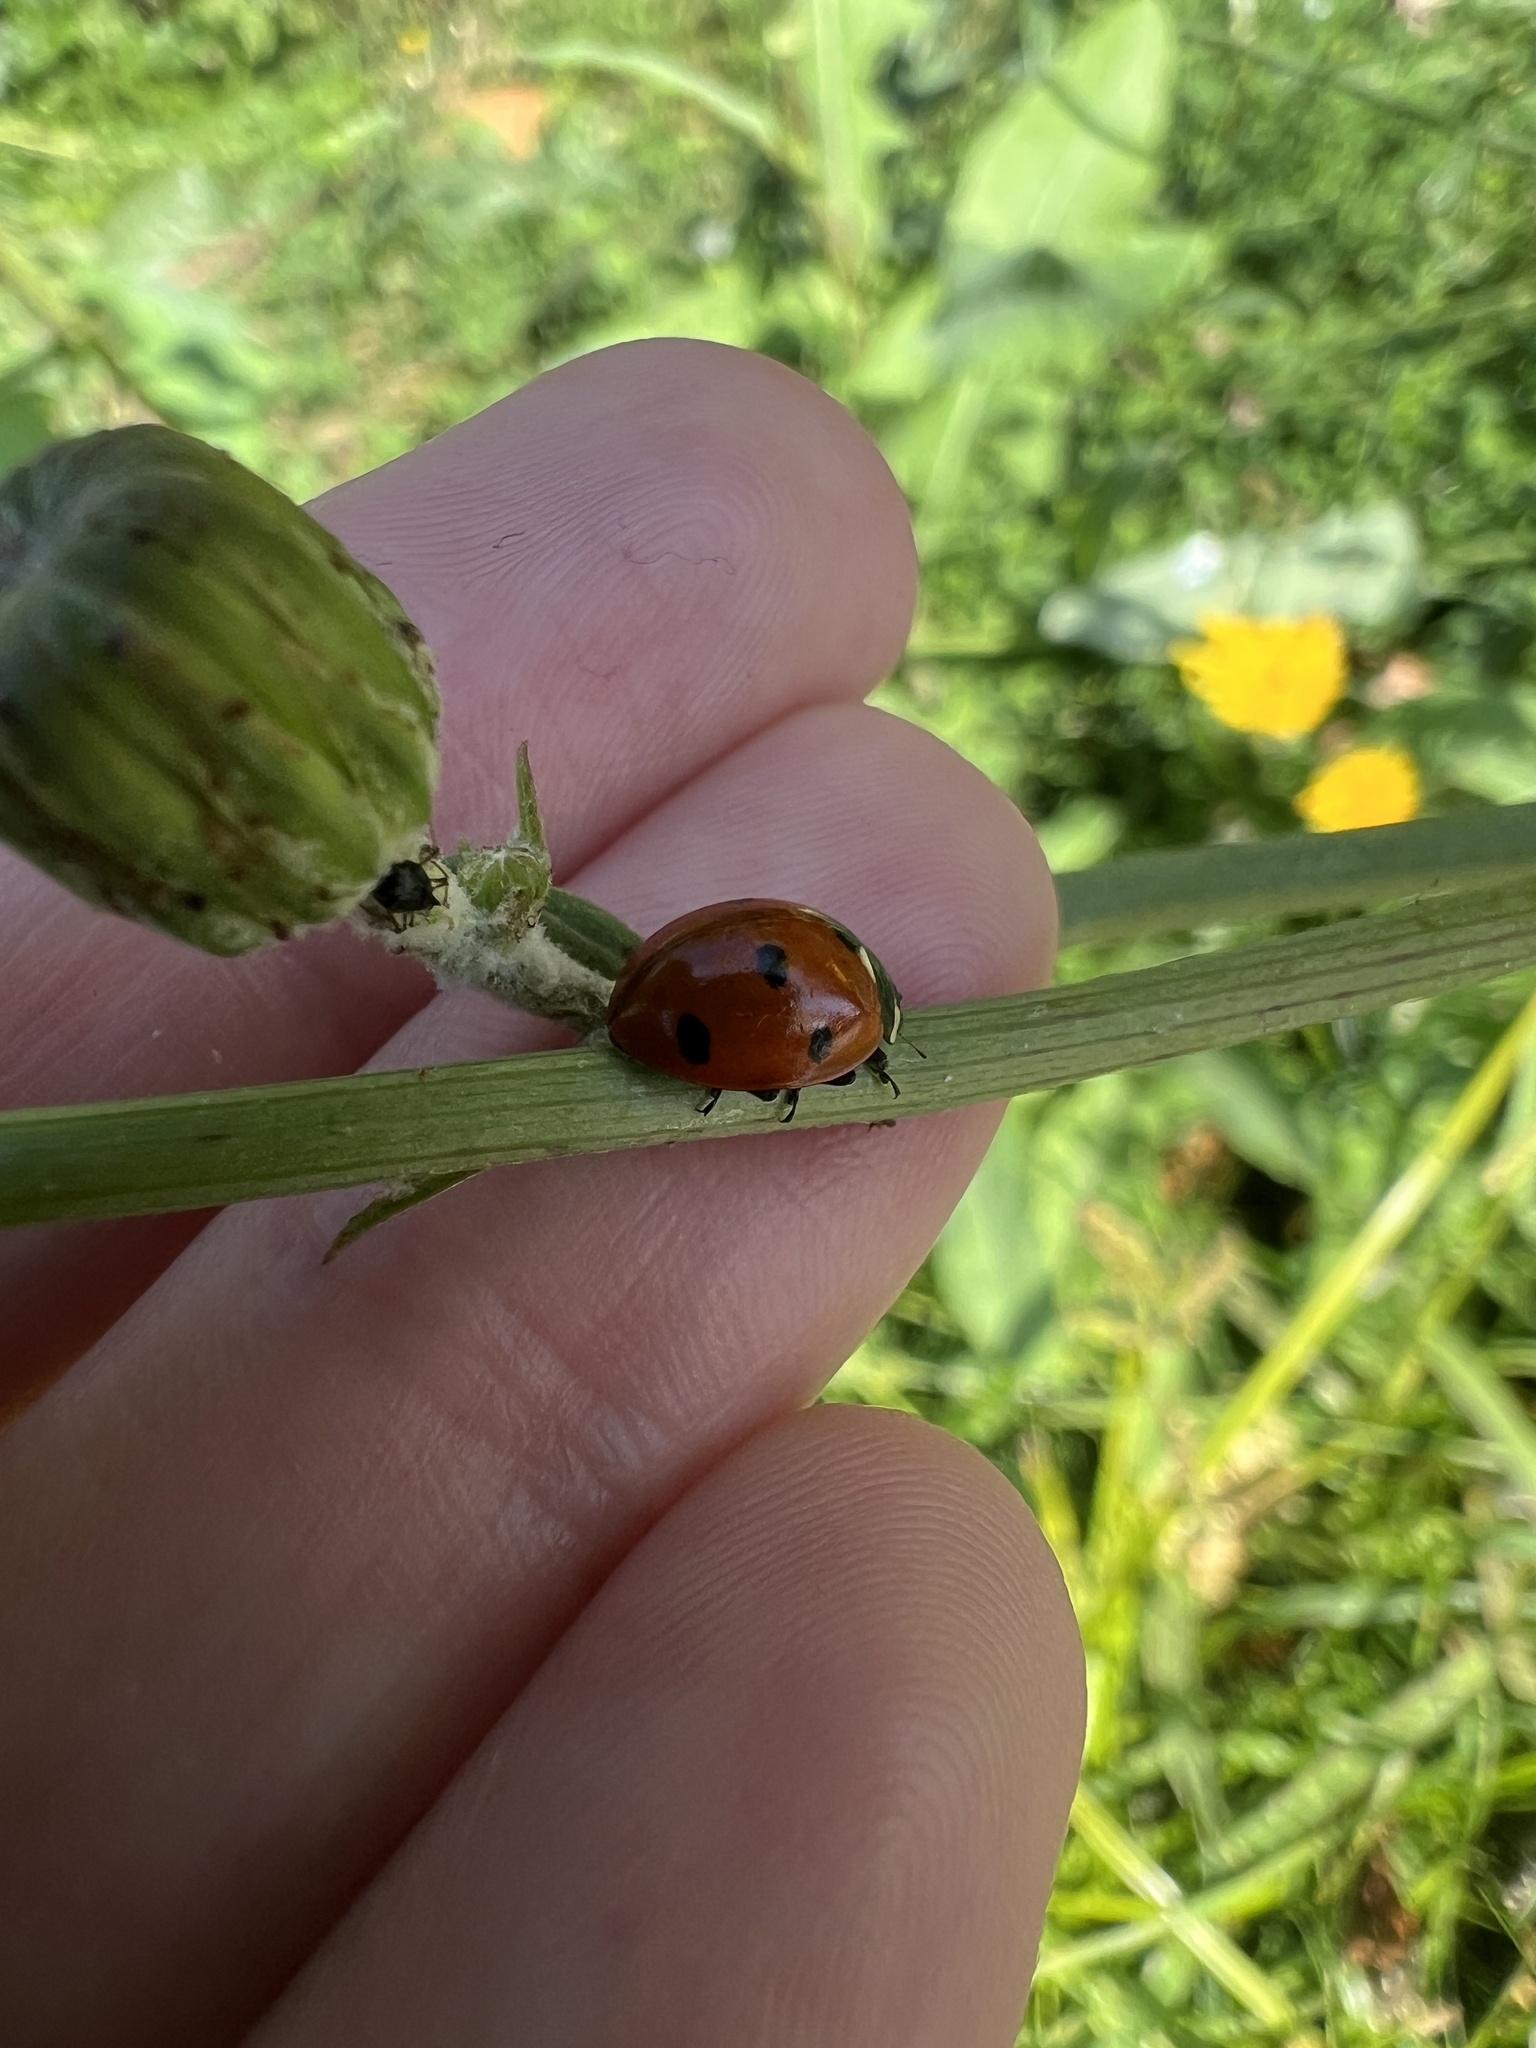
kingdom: Animalia
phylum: Arthropoda
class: Insecta
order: Coleoptera
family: Coccinellidae
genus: Coccinella
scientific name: Coccinella septempunctata
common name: Sevenspotted lady beetle
